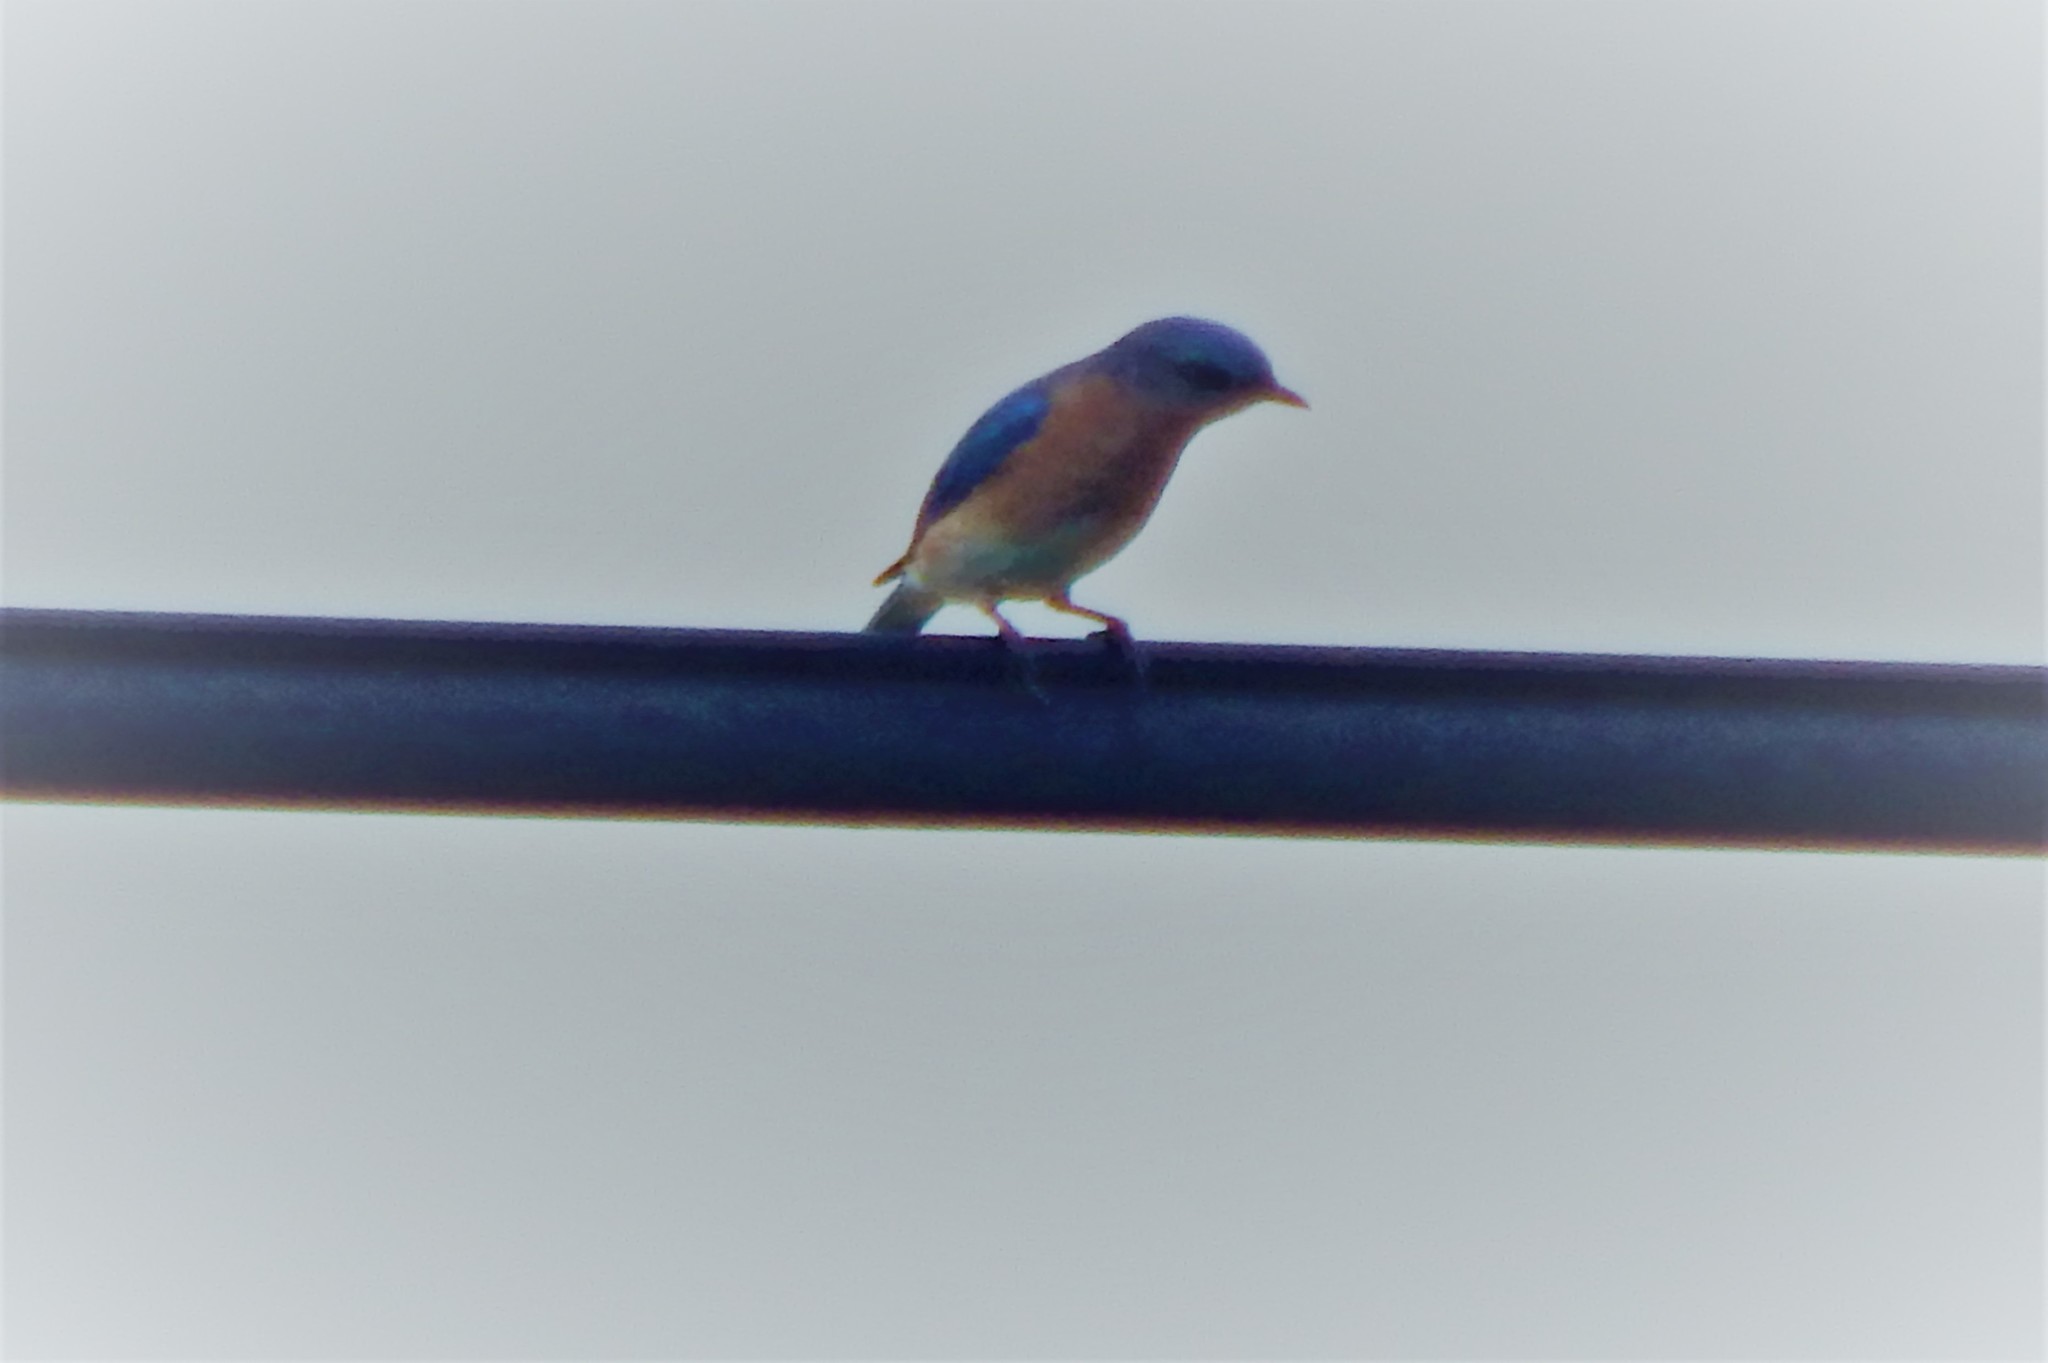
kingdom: Animalia
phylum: Chordata
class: Aves
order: Passeriformes
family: Turdidae
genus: Sialia
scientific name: Sialia sialis
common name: Eastern bluebird
